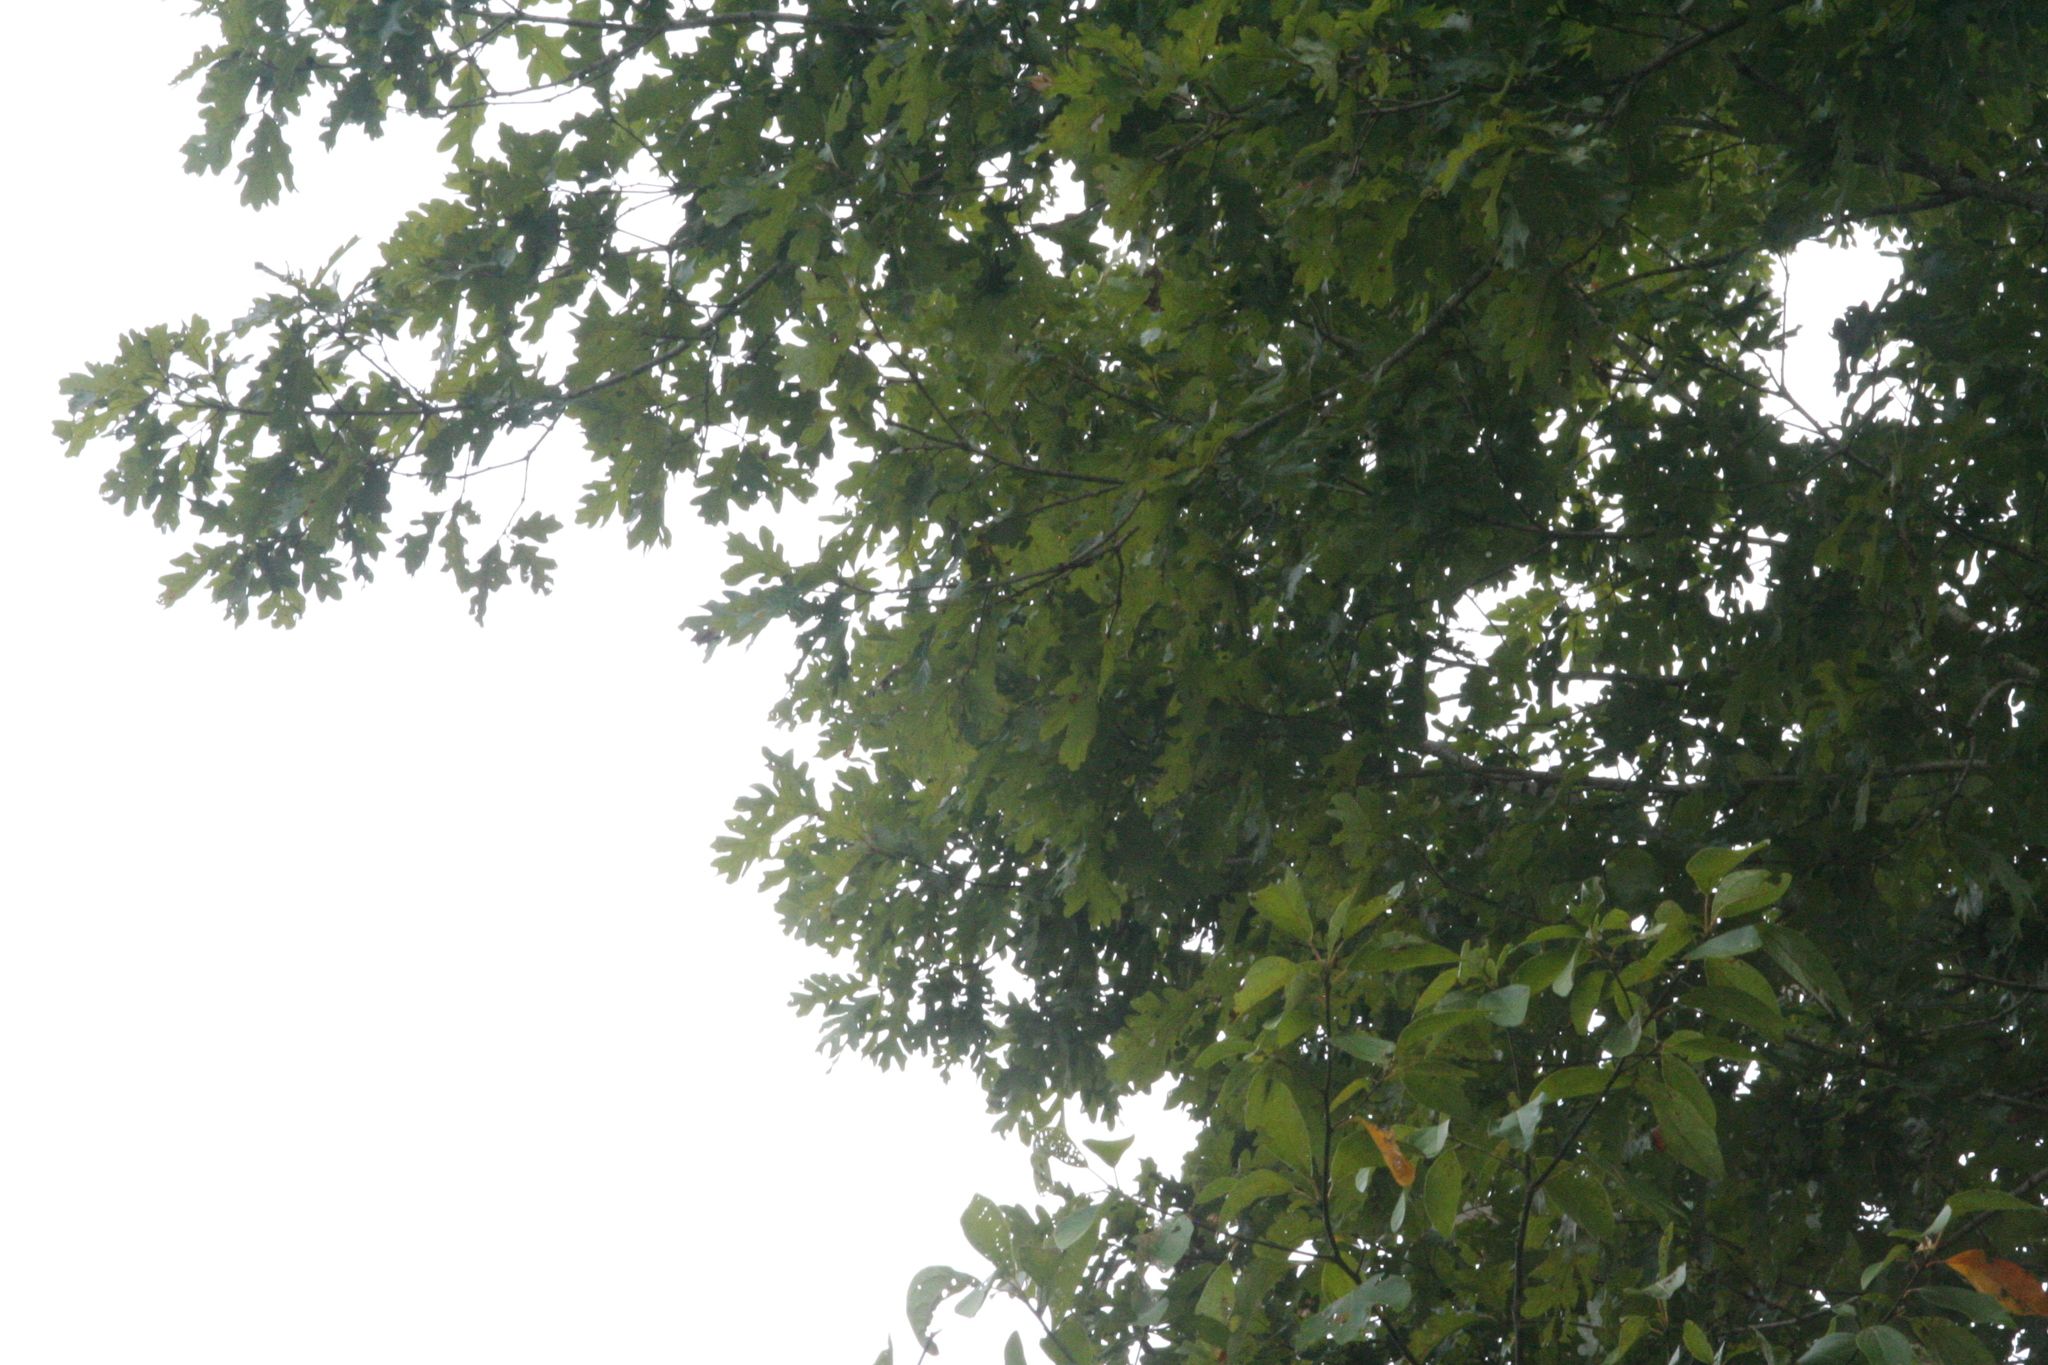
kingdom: Plantae
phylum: Tracheophyta
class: Magnoliopsida
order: Fagales
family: Fagaceae
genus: Quercus
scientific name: Quercus alba
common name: White oak
